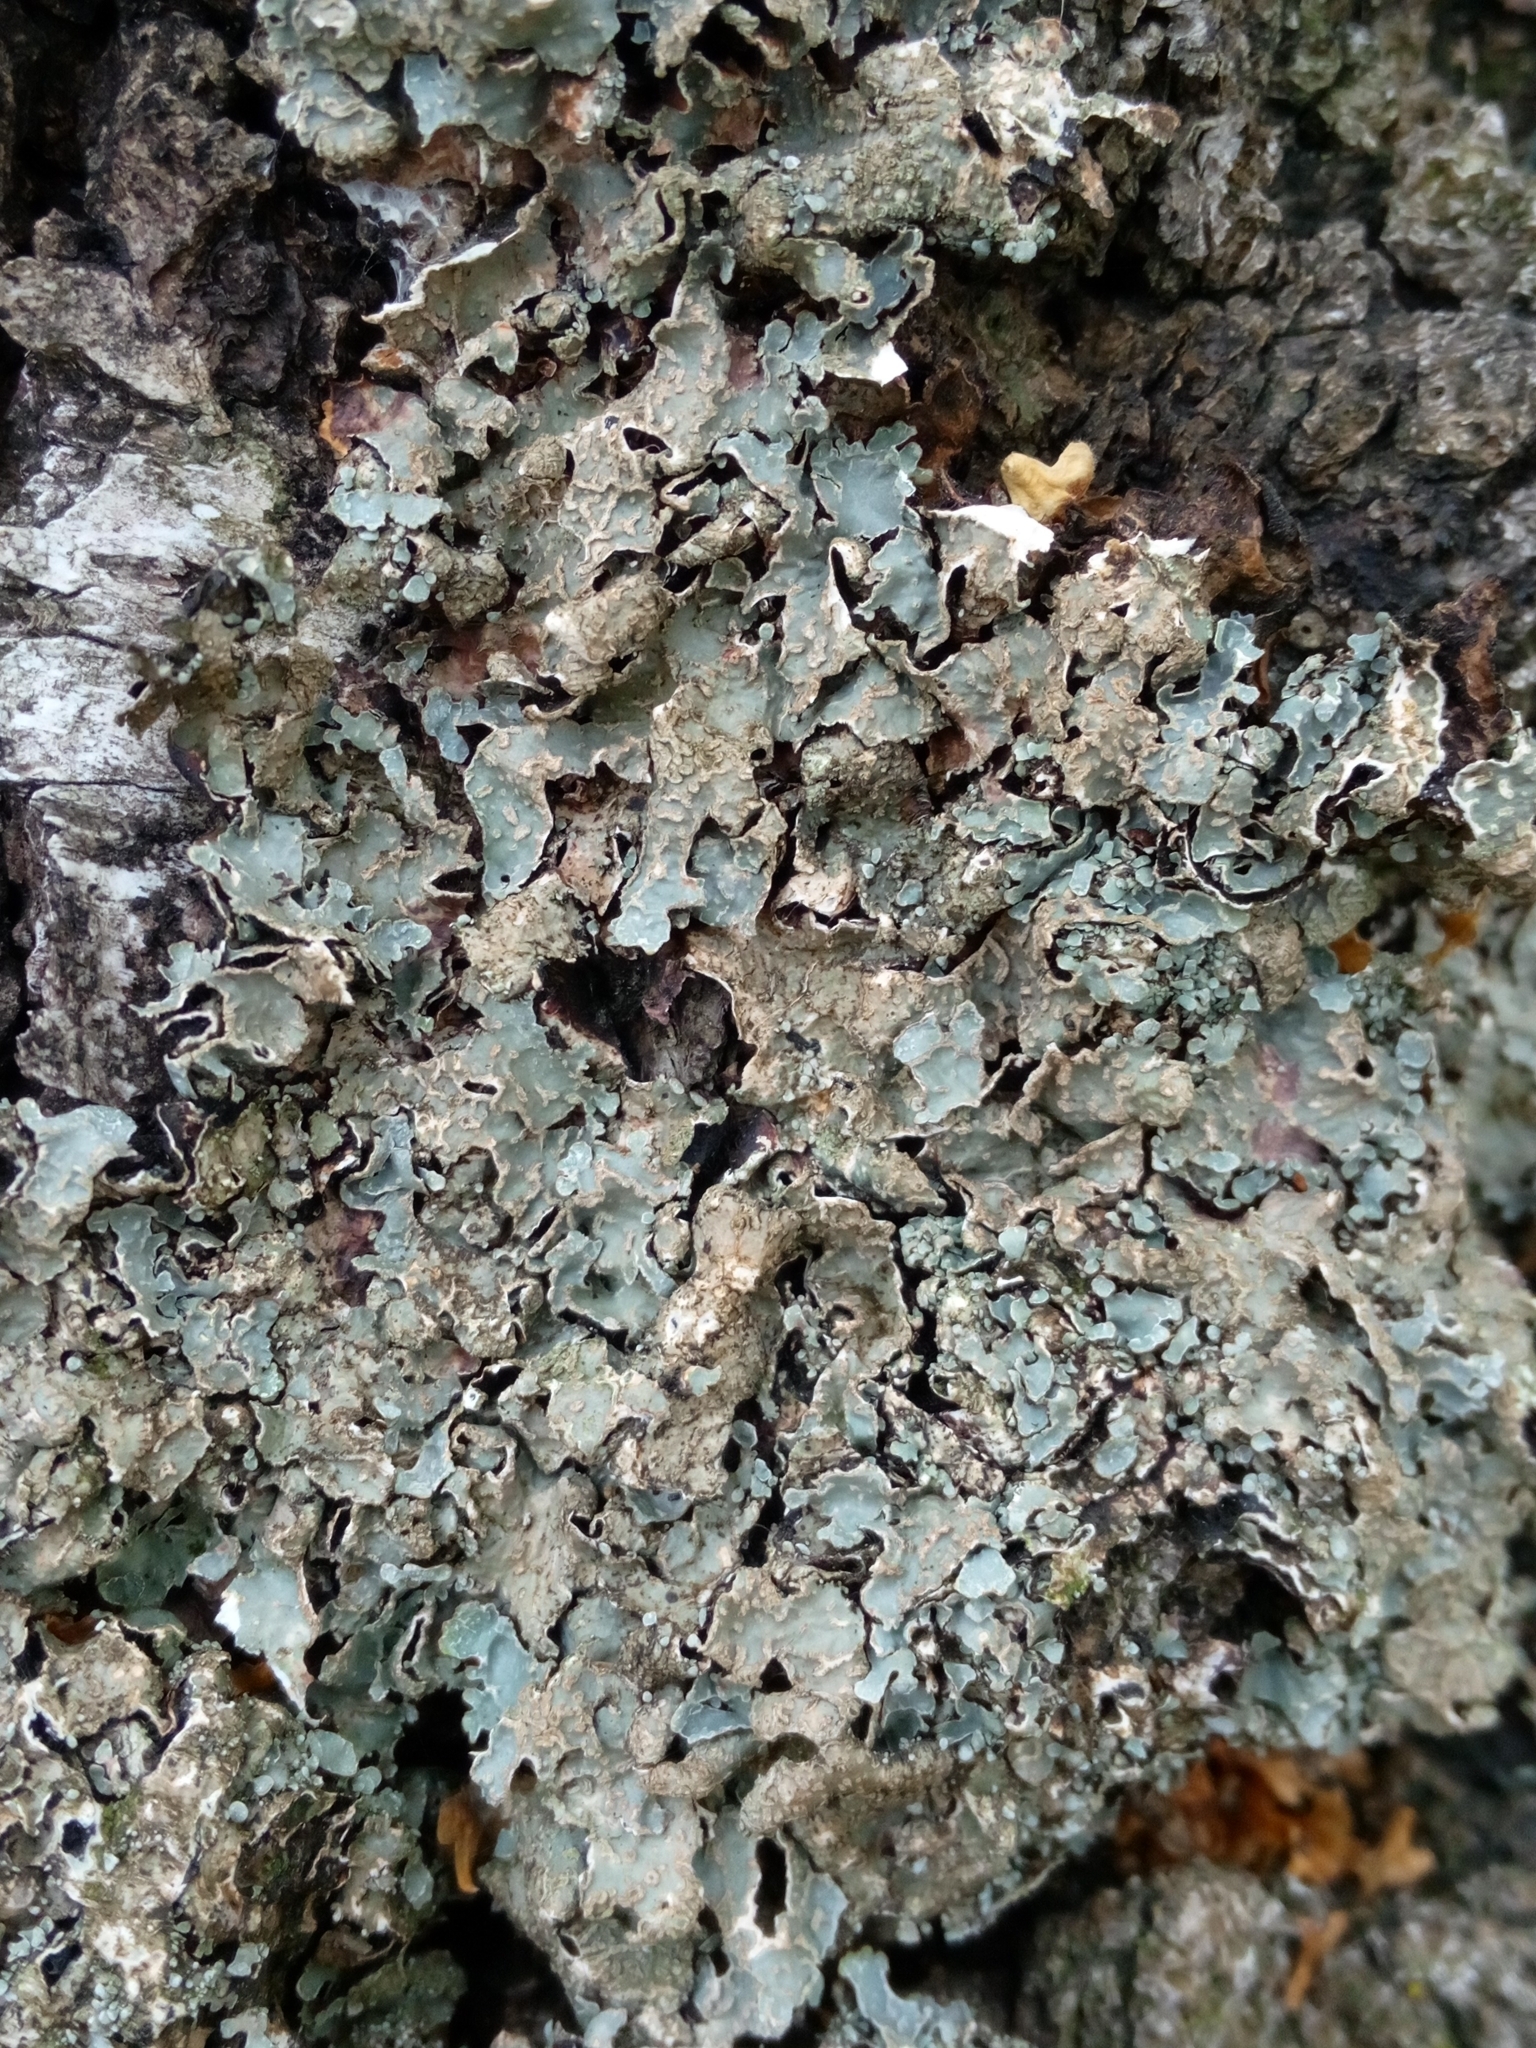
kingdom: Fungi
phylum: Ascomycota
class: Lecanoromycetes
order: Lecanorales
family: Parmeliaceae
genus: Parmelia
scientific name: Parmelia sulcata
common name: Netted shield lichen
